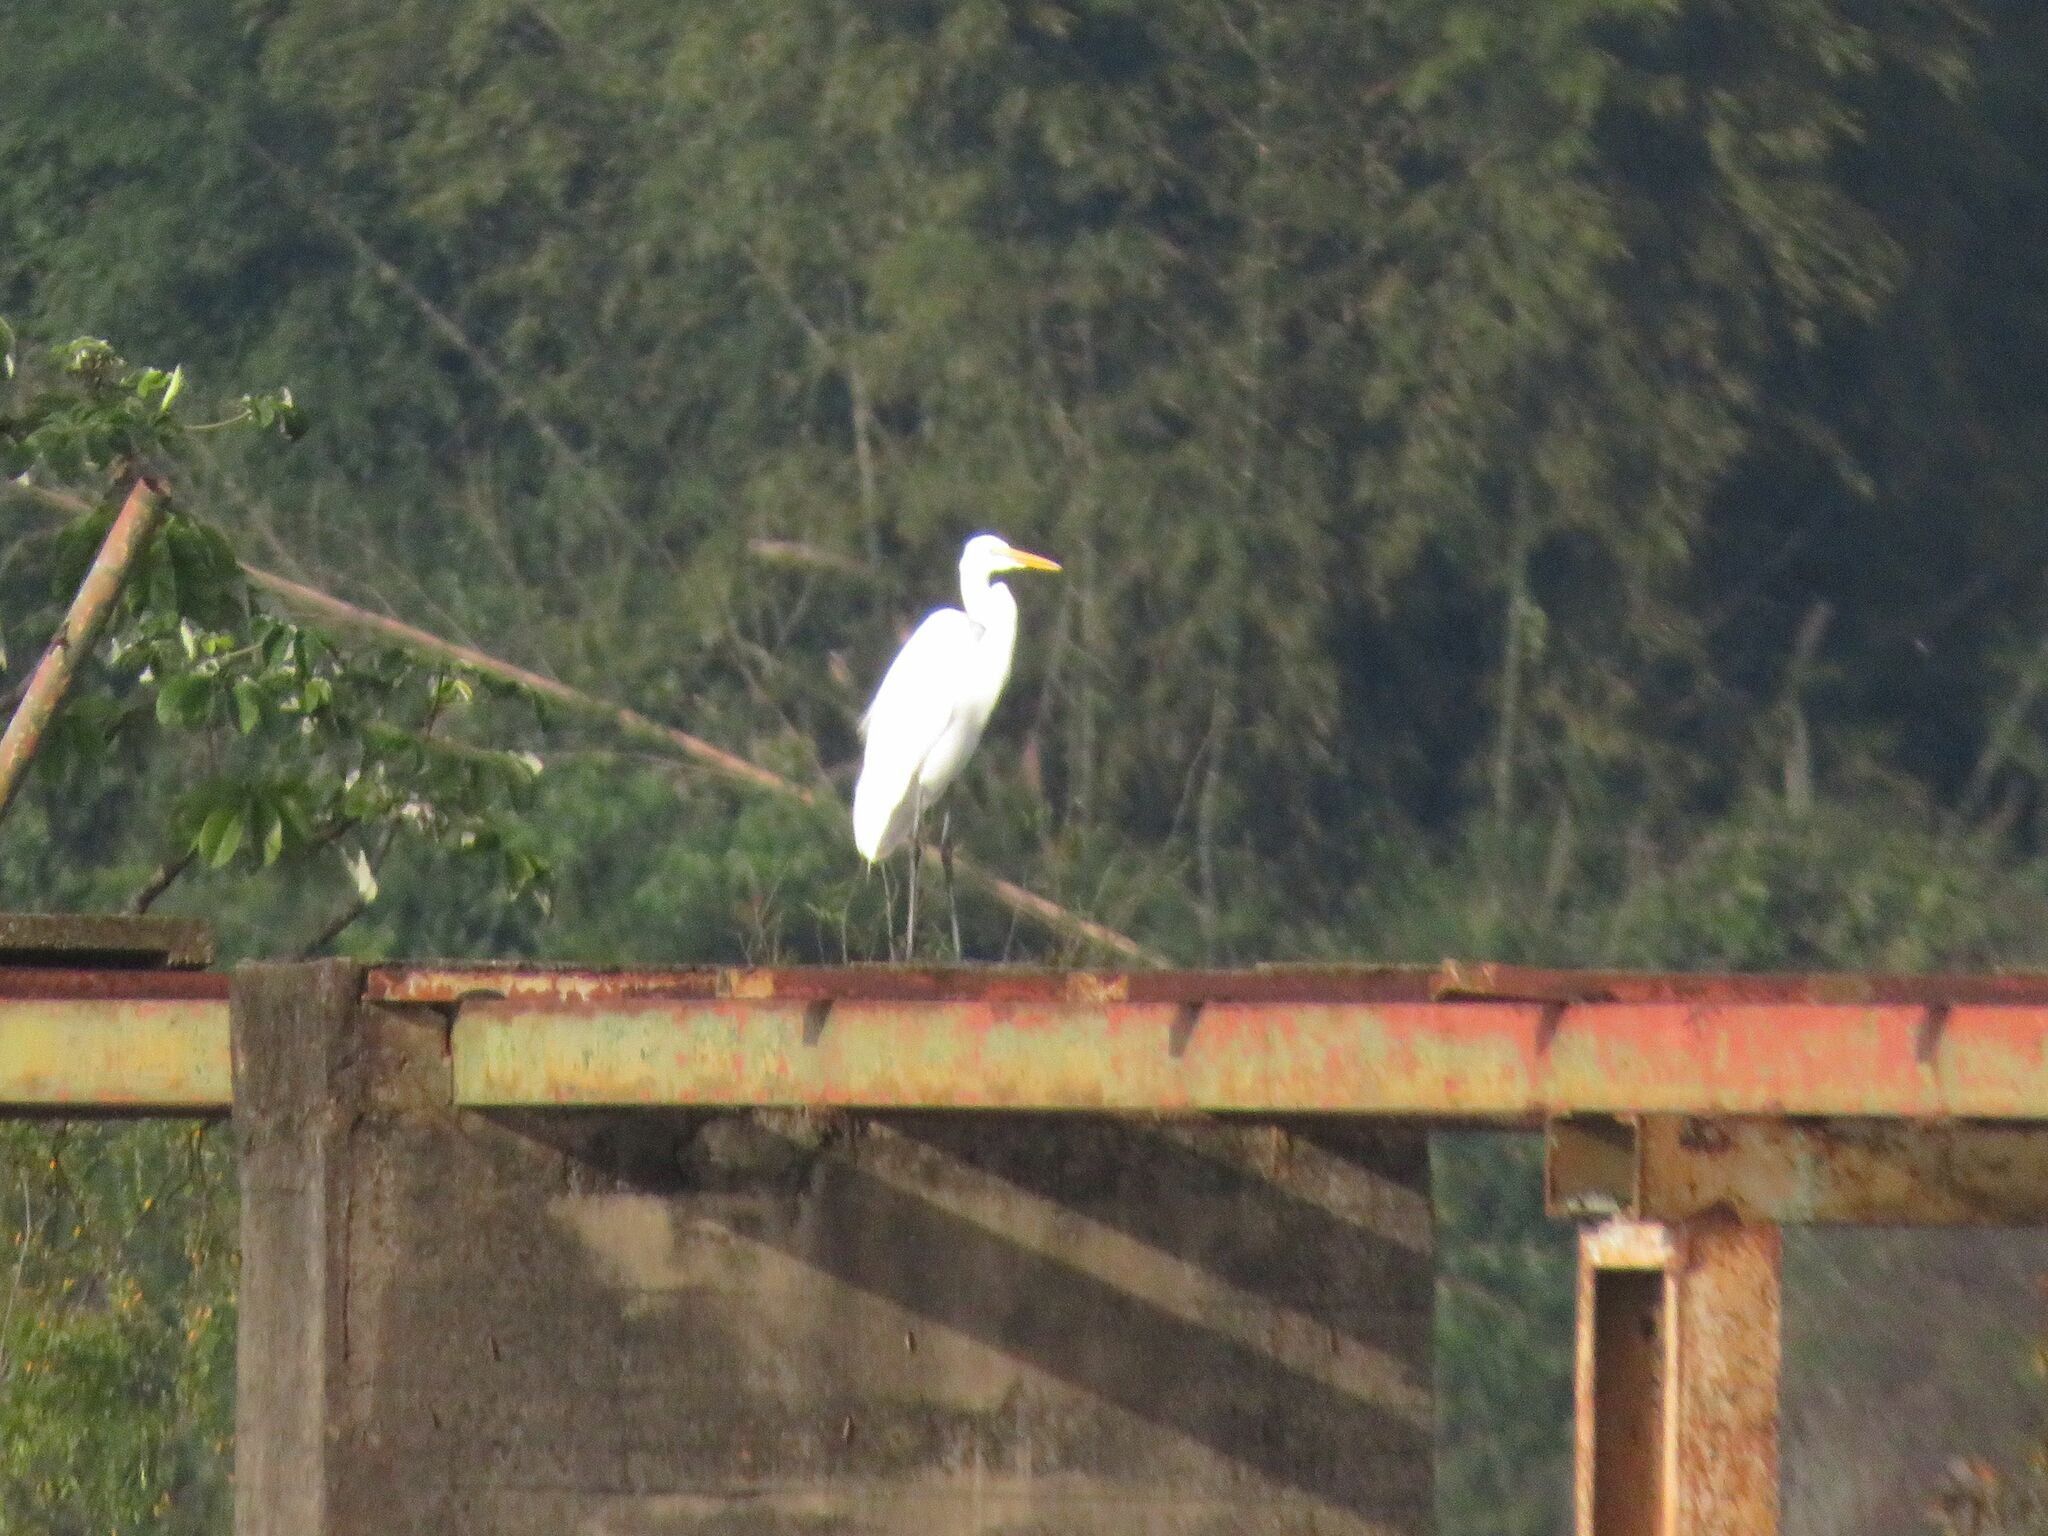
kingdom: Animalia
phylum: Chordata
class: Aves
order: Pelecaniformes
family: Ardeidae
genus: Ardea
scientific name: Ardea alba
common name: Great egret
